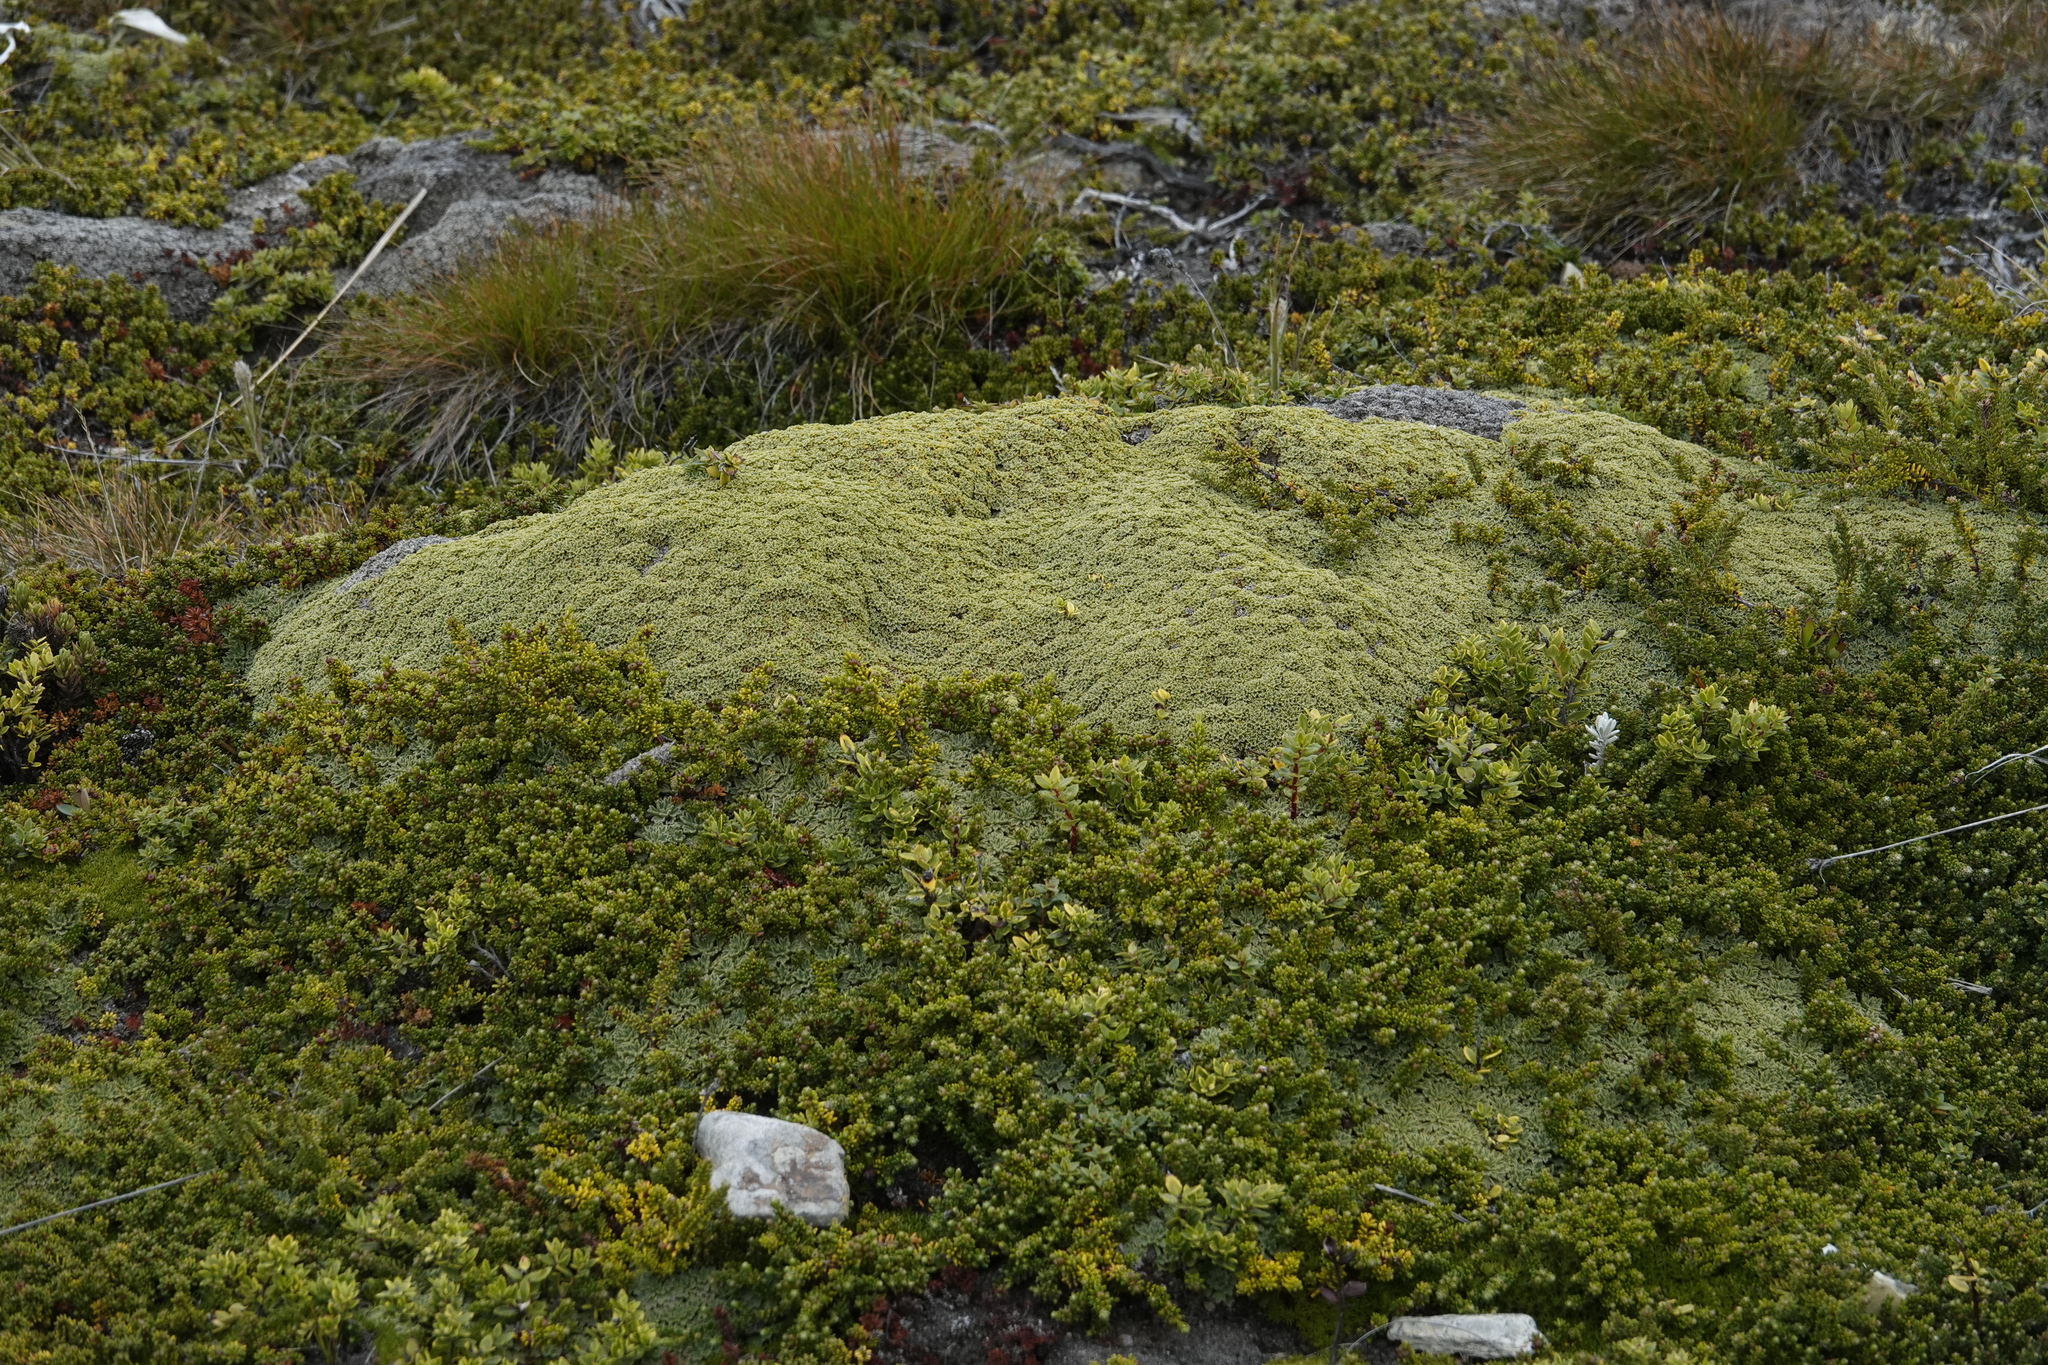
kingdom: Plantae
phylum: Tracheophyta
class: Magnoliopsida
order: Apiales
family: Apiaceae
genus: Bolax
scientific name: Bolax gummifera
